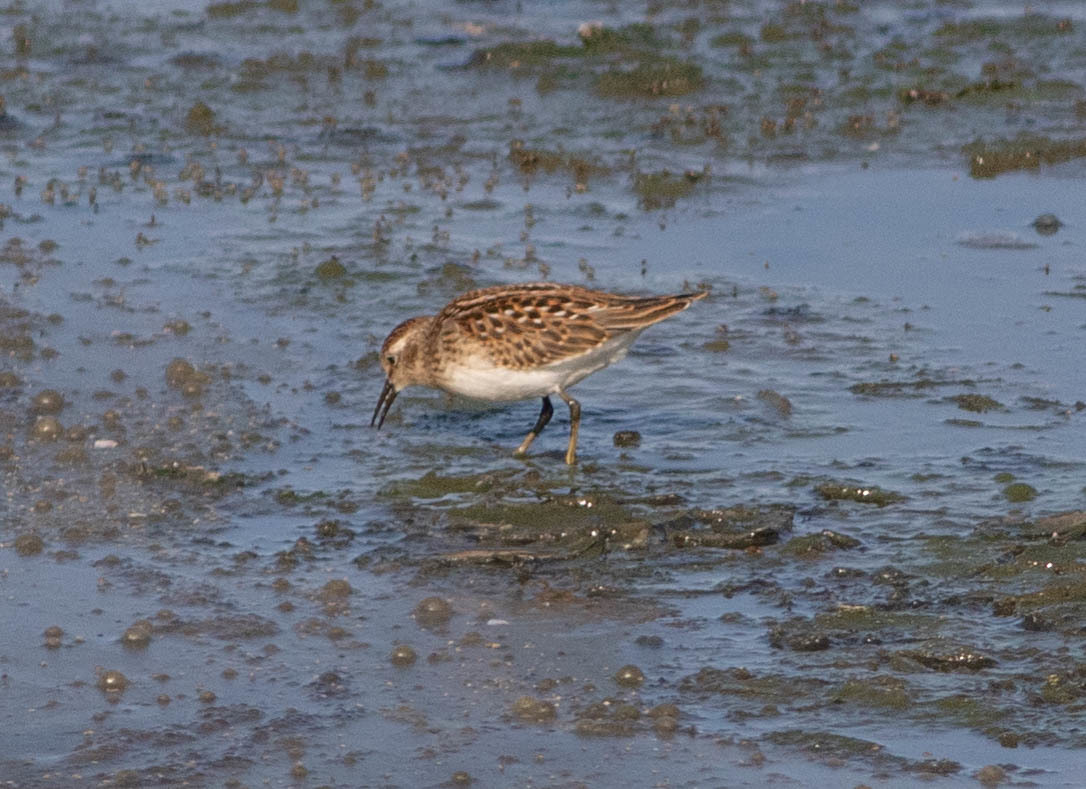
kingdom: Animalia
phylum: Chordata
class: Aves
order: Charadriiformes
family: Scolopacidae
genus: Calidris
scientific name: Calidris minutilla
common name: Least sandpiper
